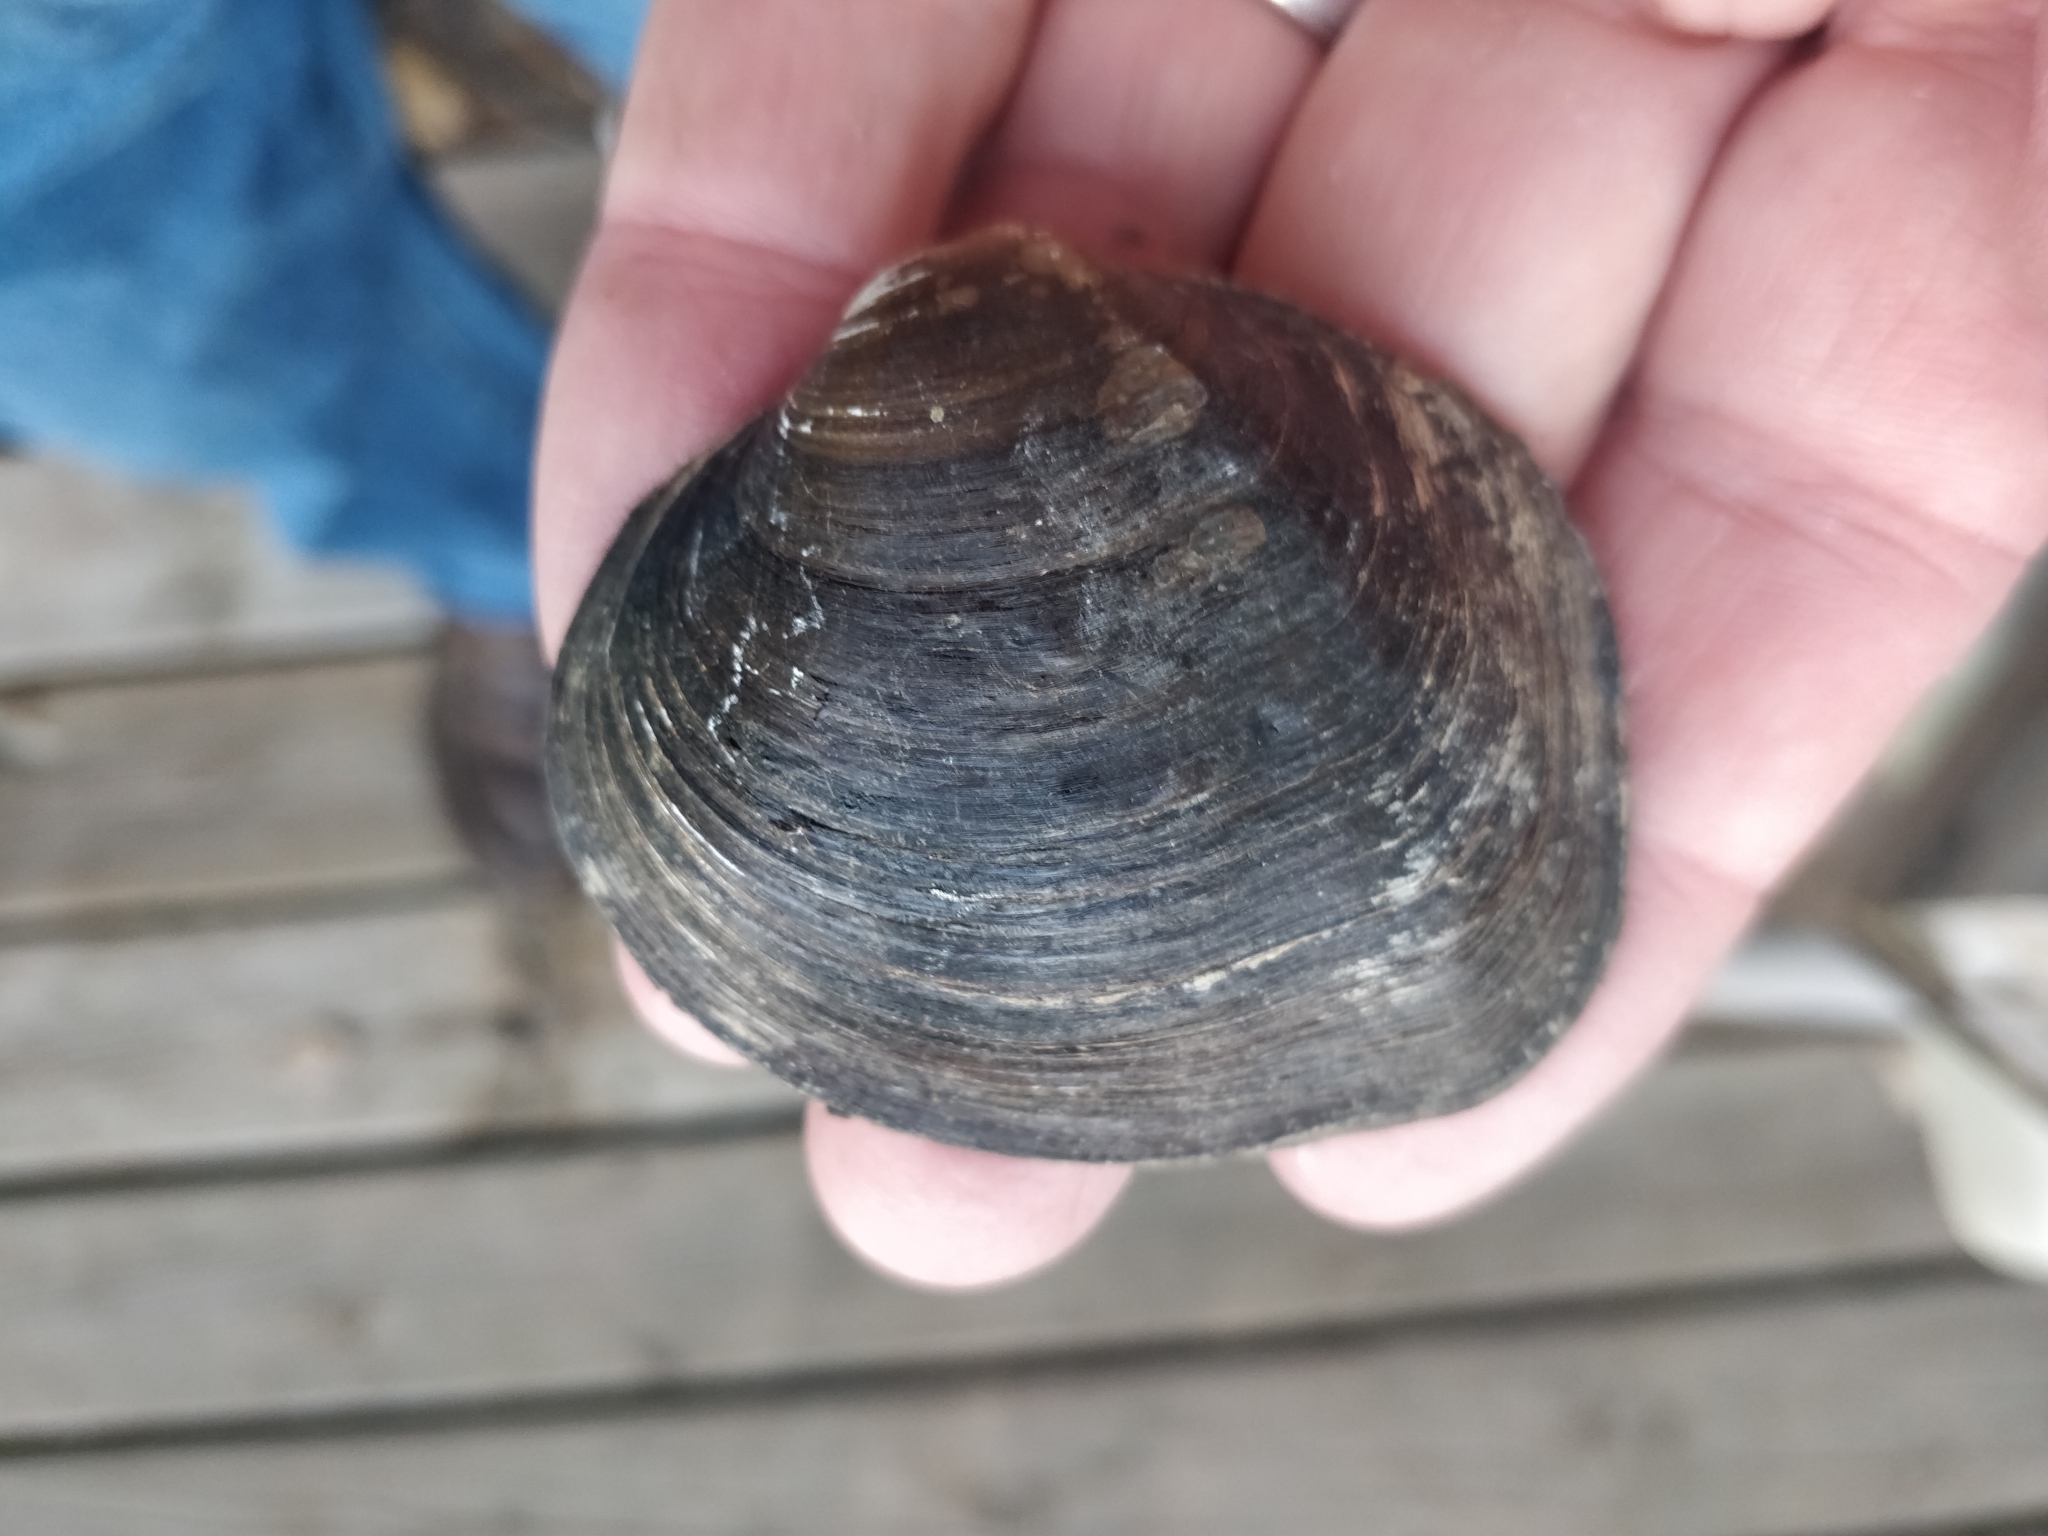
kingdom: Animalia
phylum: Mollusca
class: Bivalvia
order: Unionida
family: Unionidae
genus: Cyclonaias
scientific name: Cyclonaias pustulosa
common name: Pimpleback
